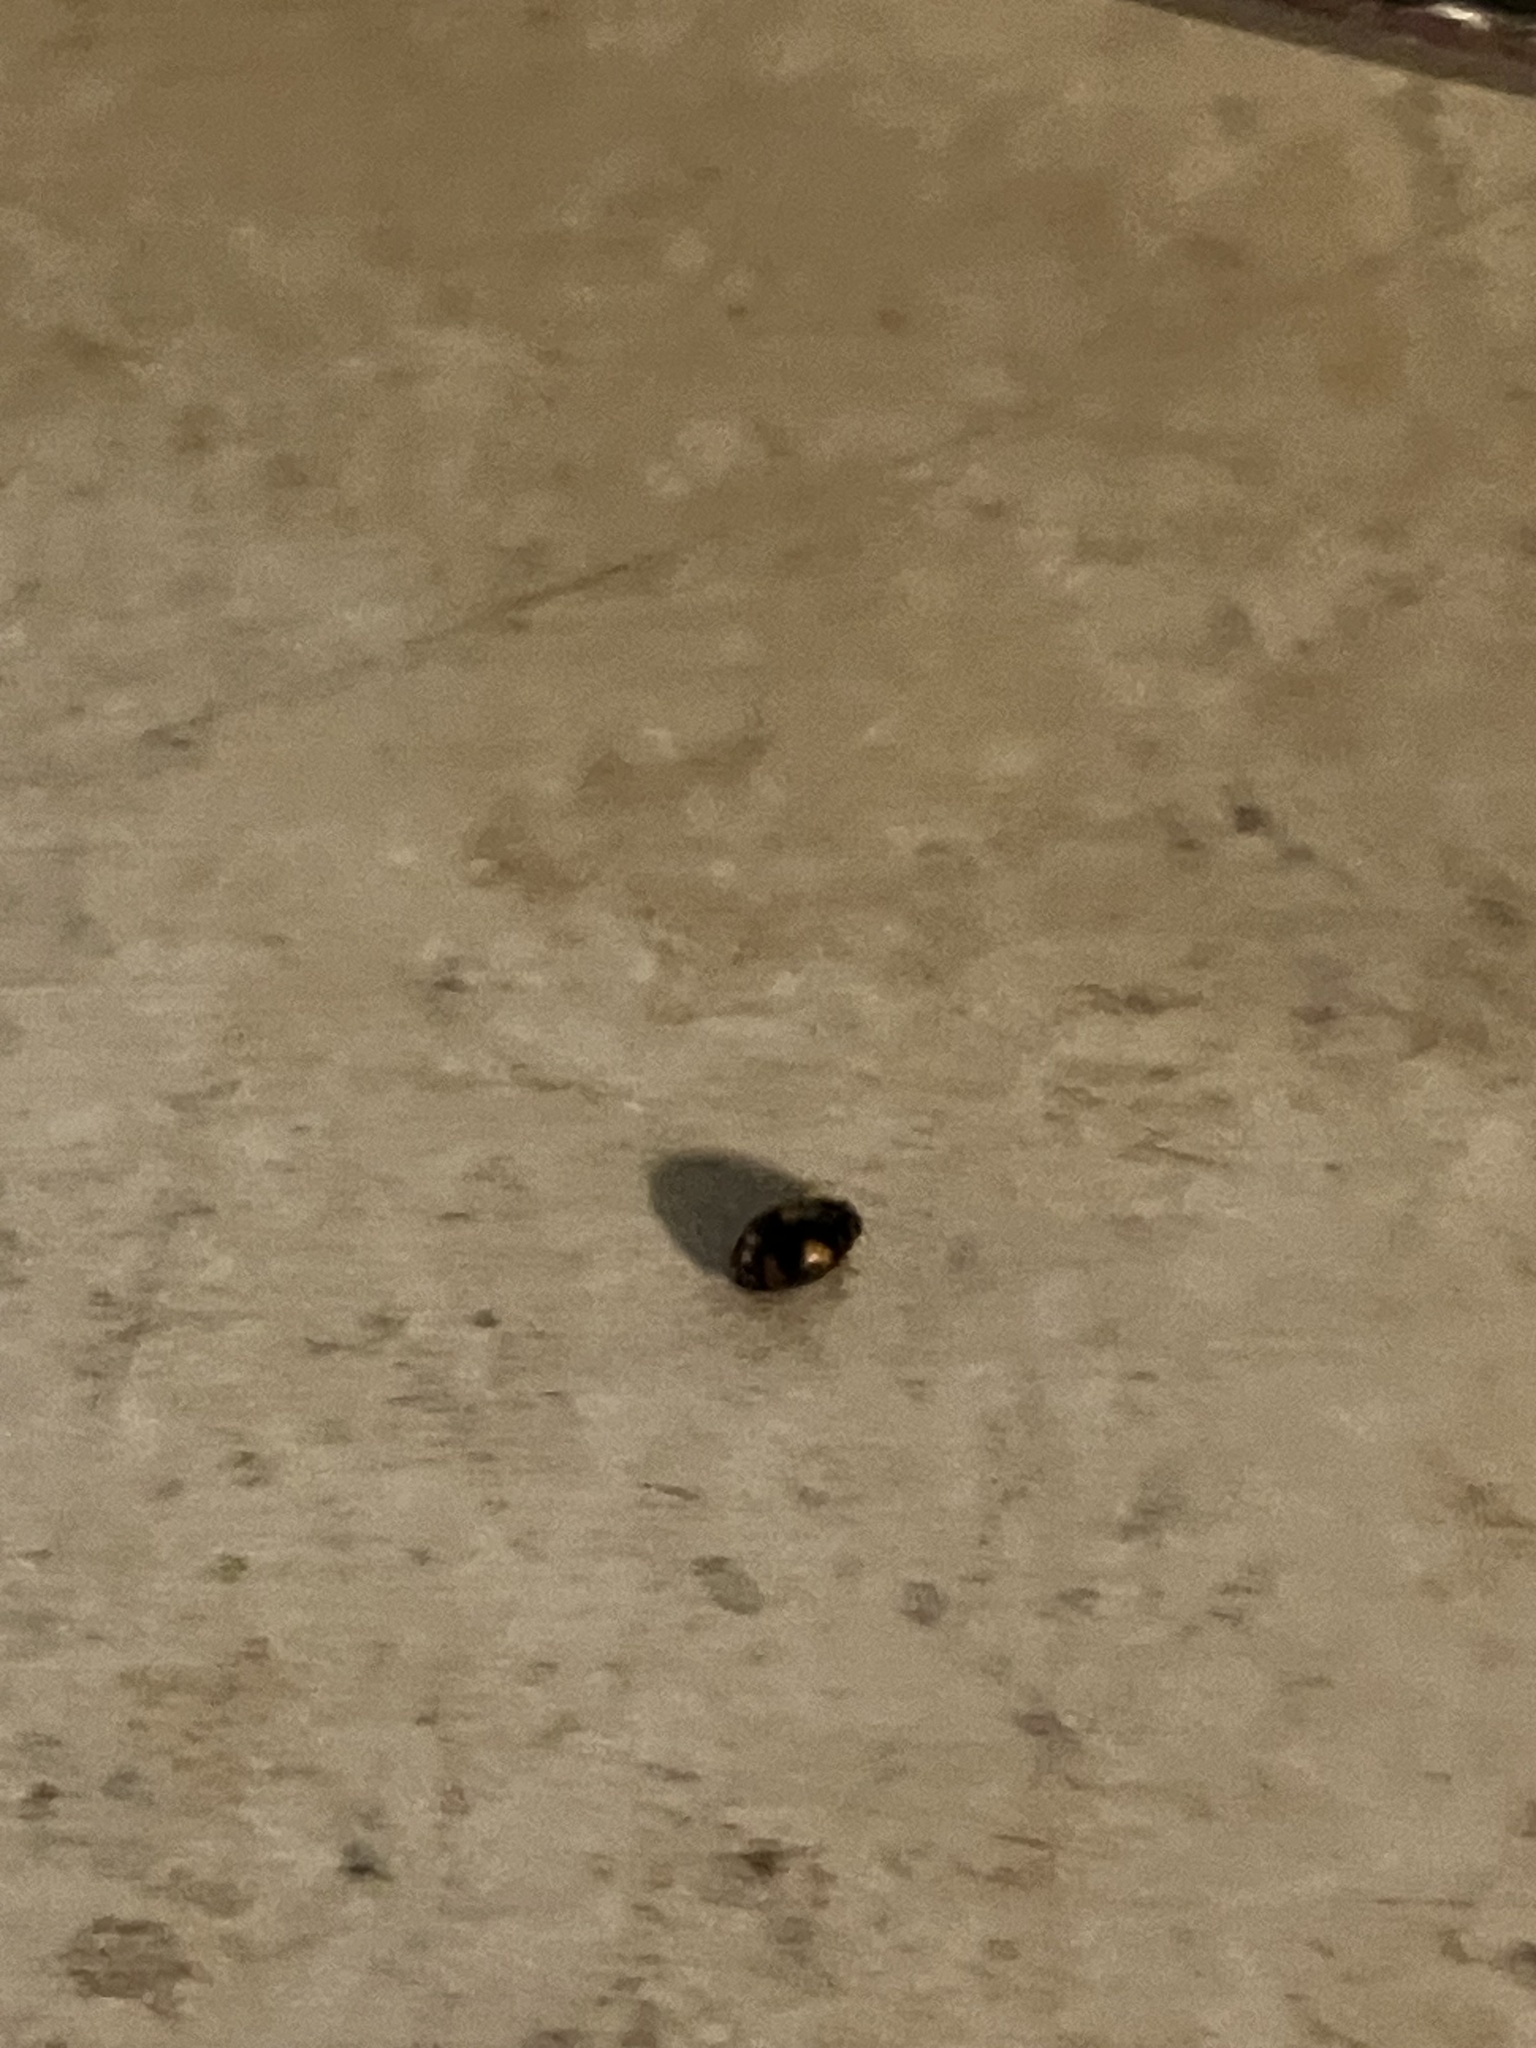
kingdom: Animalia
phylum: Arthropoda
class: Insecta
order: Coleoptera
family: Coccinellidae
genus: Nephus
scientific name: Nephus quadrimaculatus
